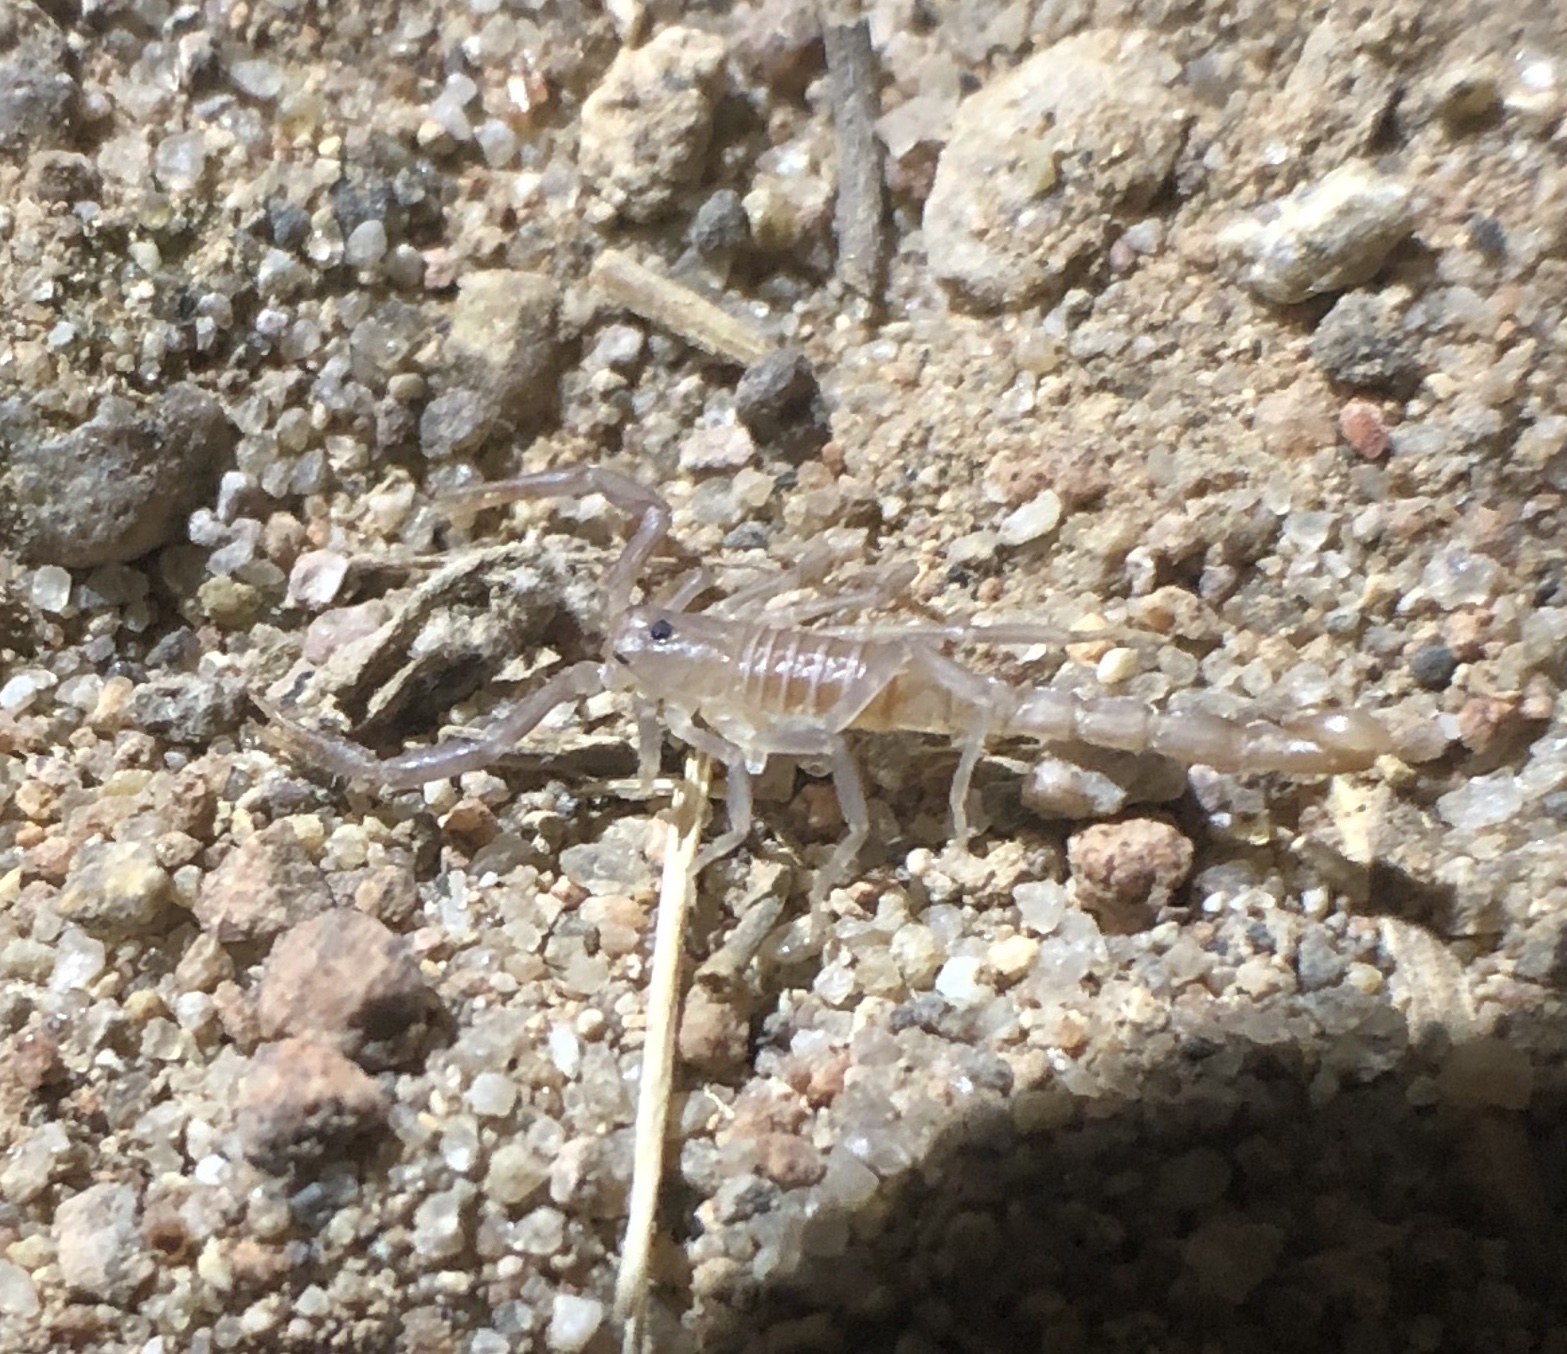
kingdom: Animalia
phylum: Arthropoda
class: Arachnida
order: Scorpiones
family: Vaejovidae
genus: Paravaejovis
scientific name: Paravaejovis puritanus
